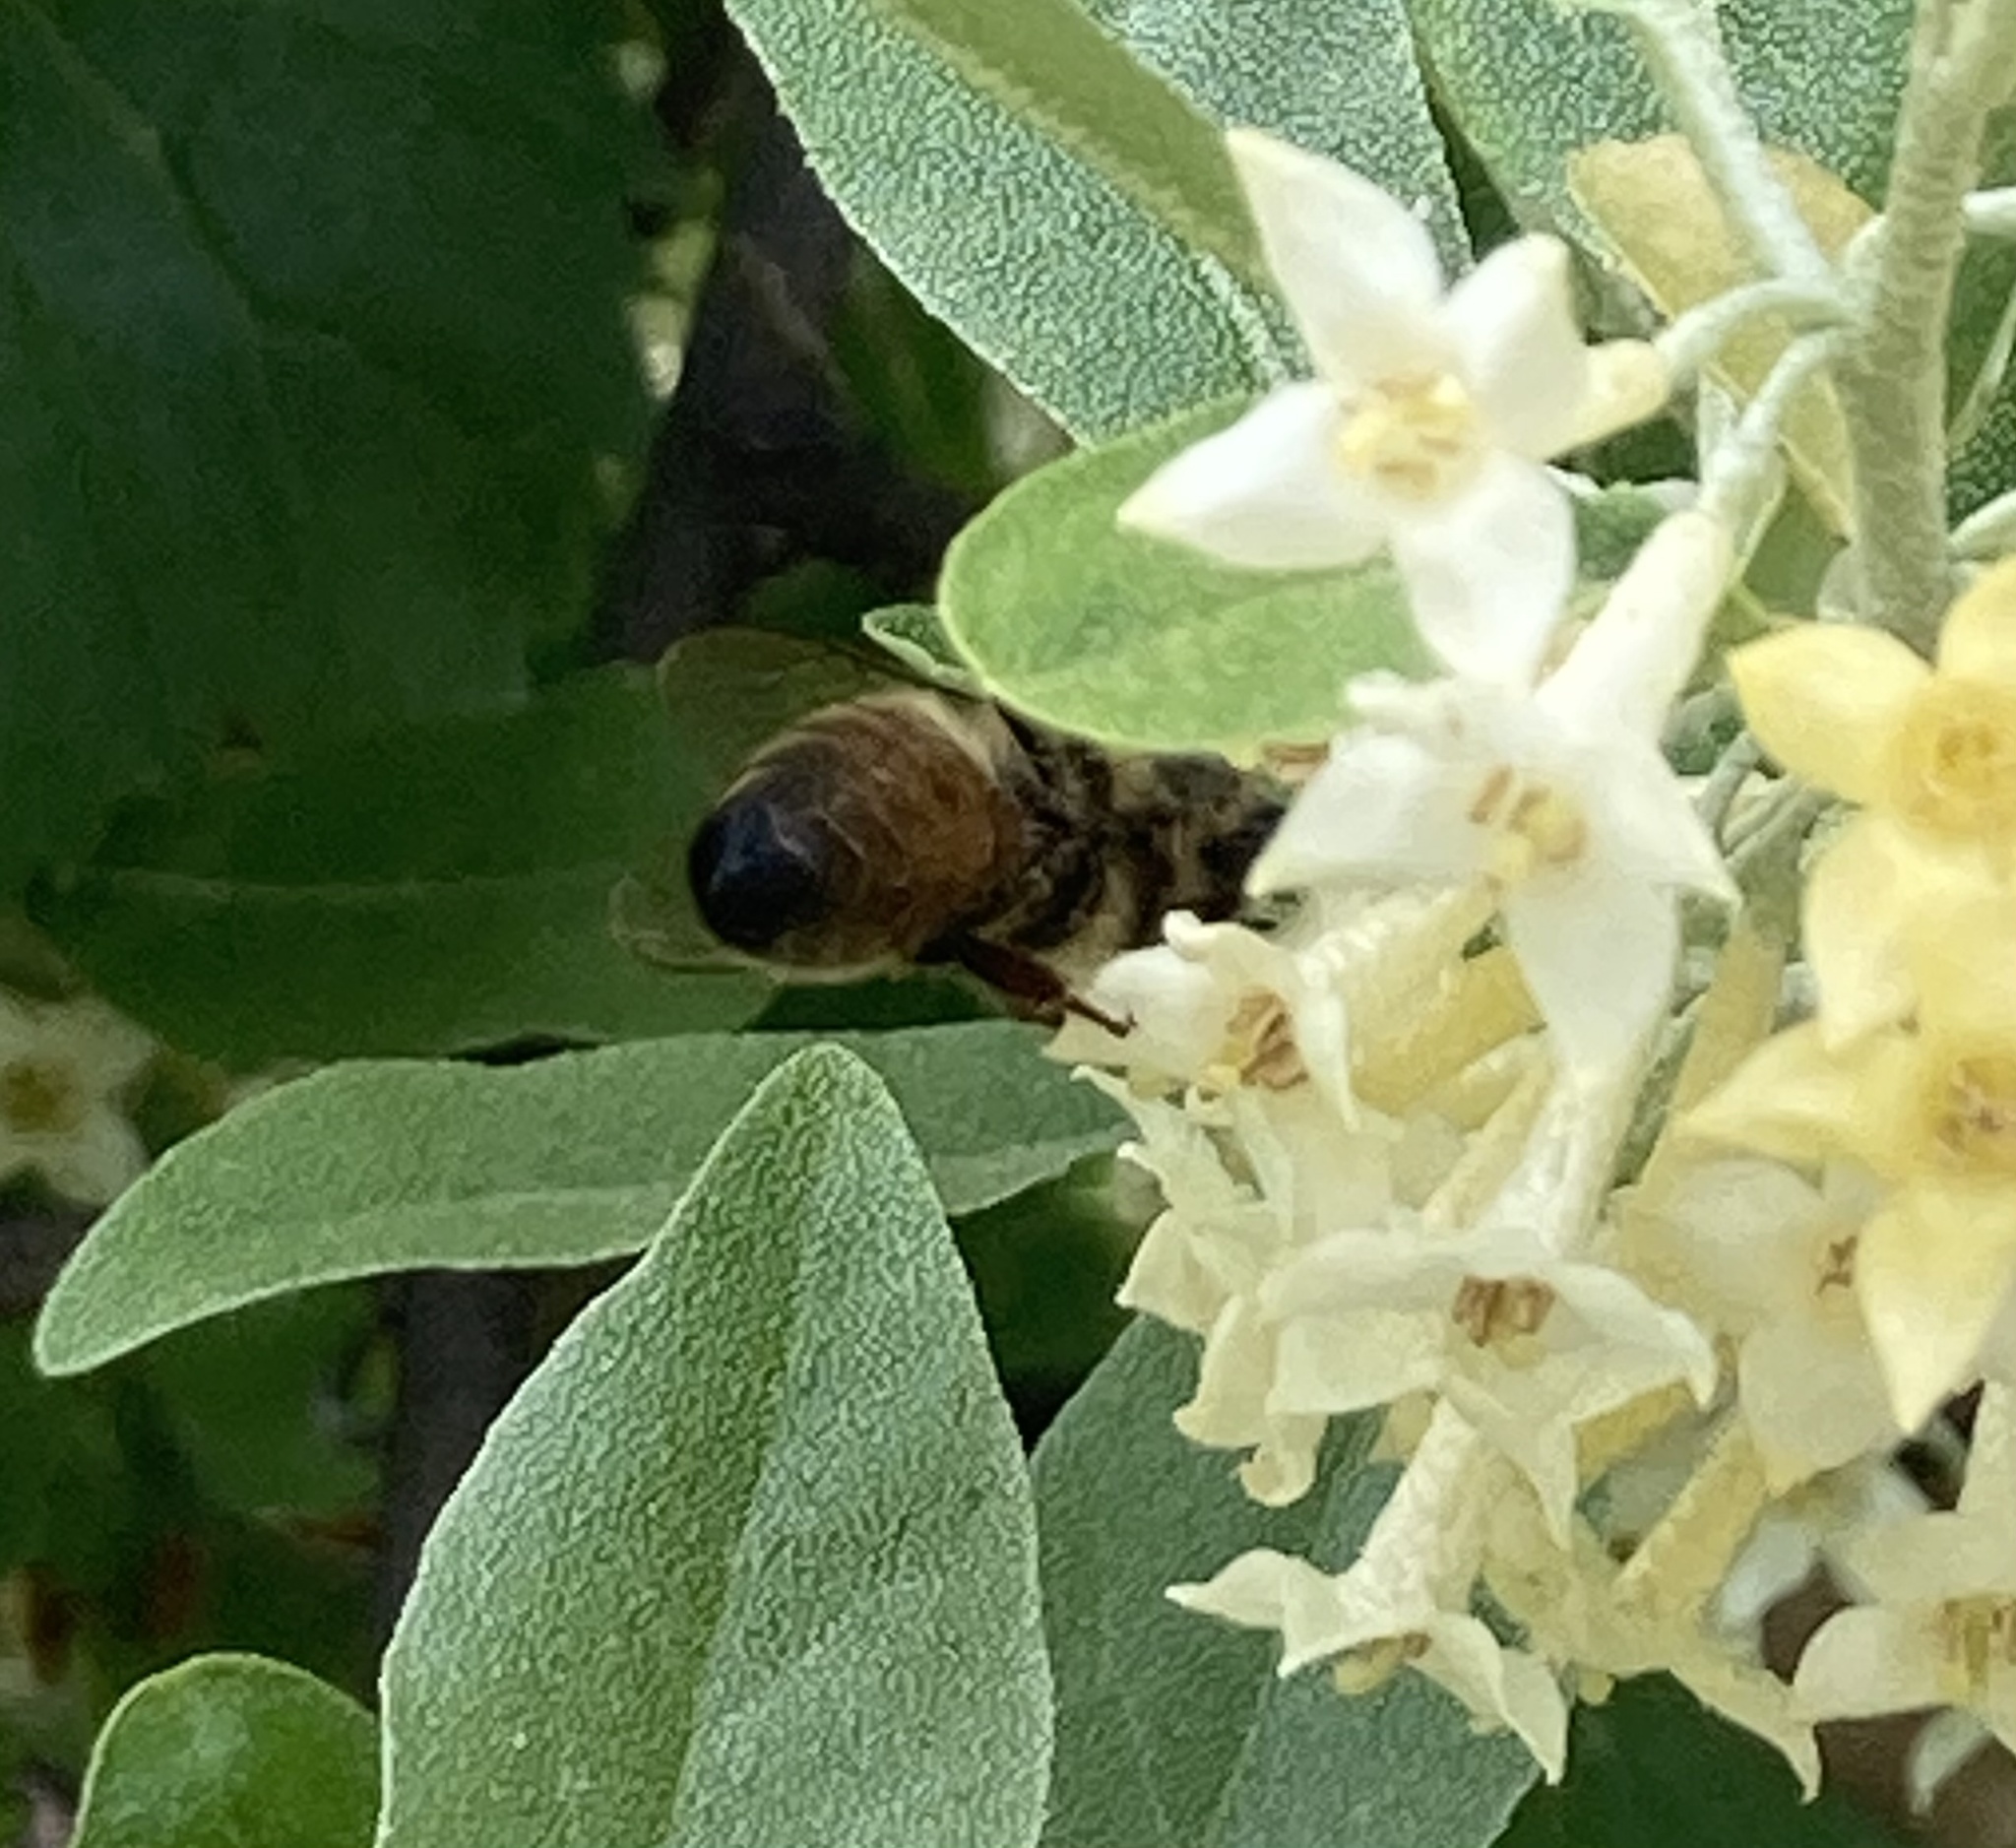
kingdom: Animalia
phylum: Arthropoda
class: Insecta
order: Hymenoptera
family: Apidae
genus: Apis
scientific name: Apis mellifera
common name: Honey bee
